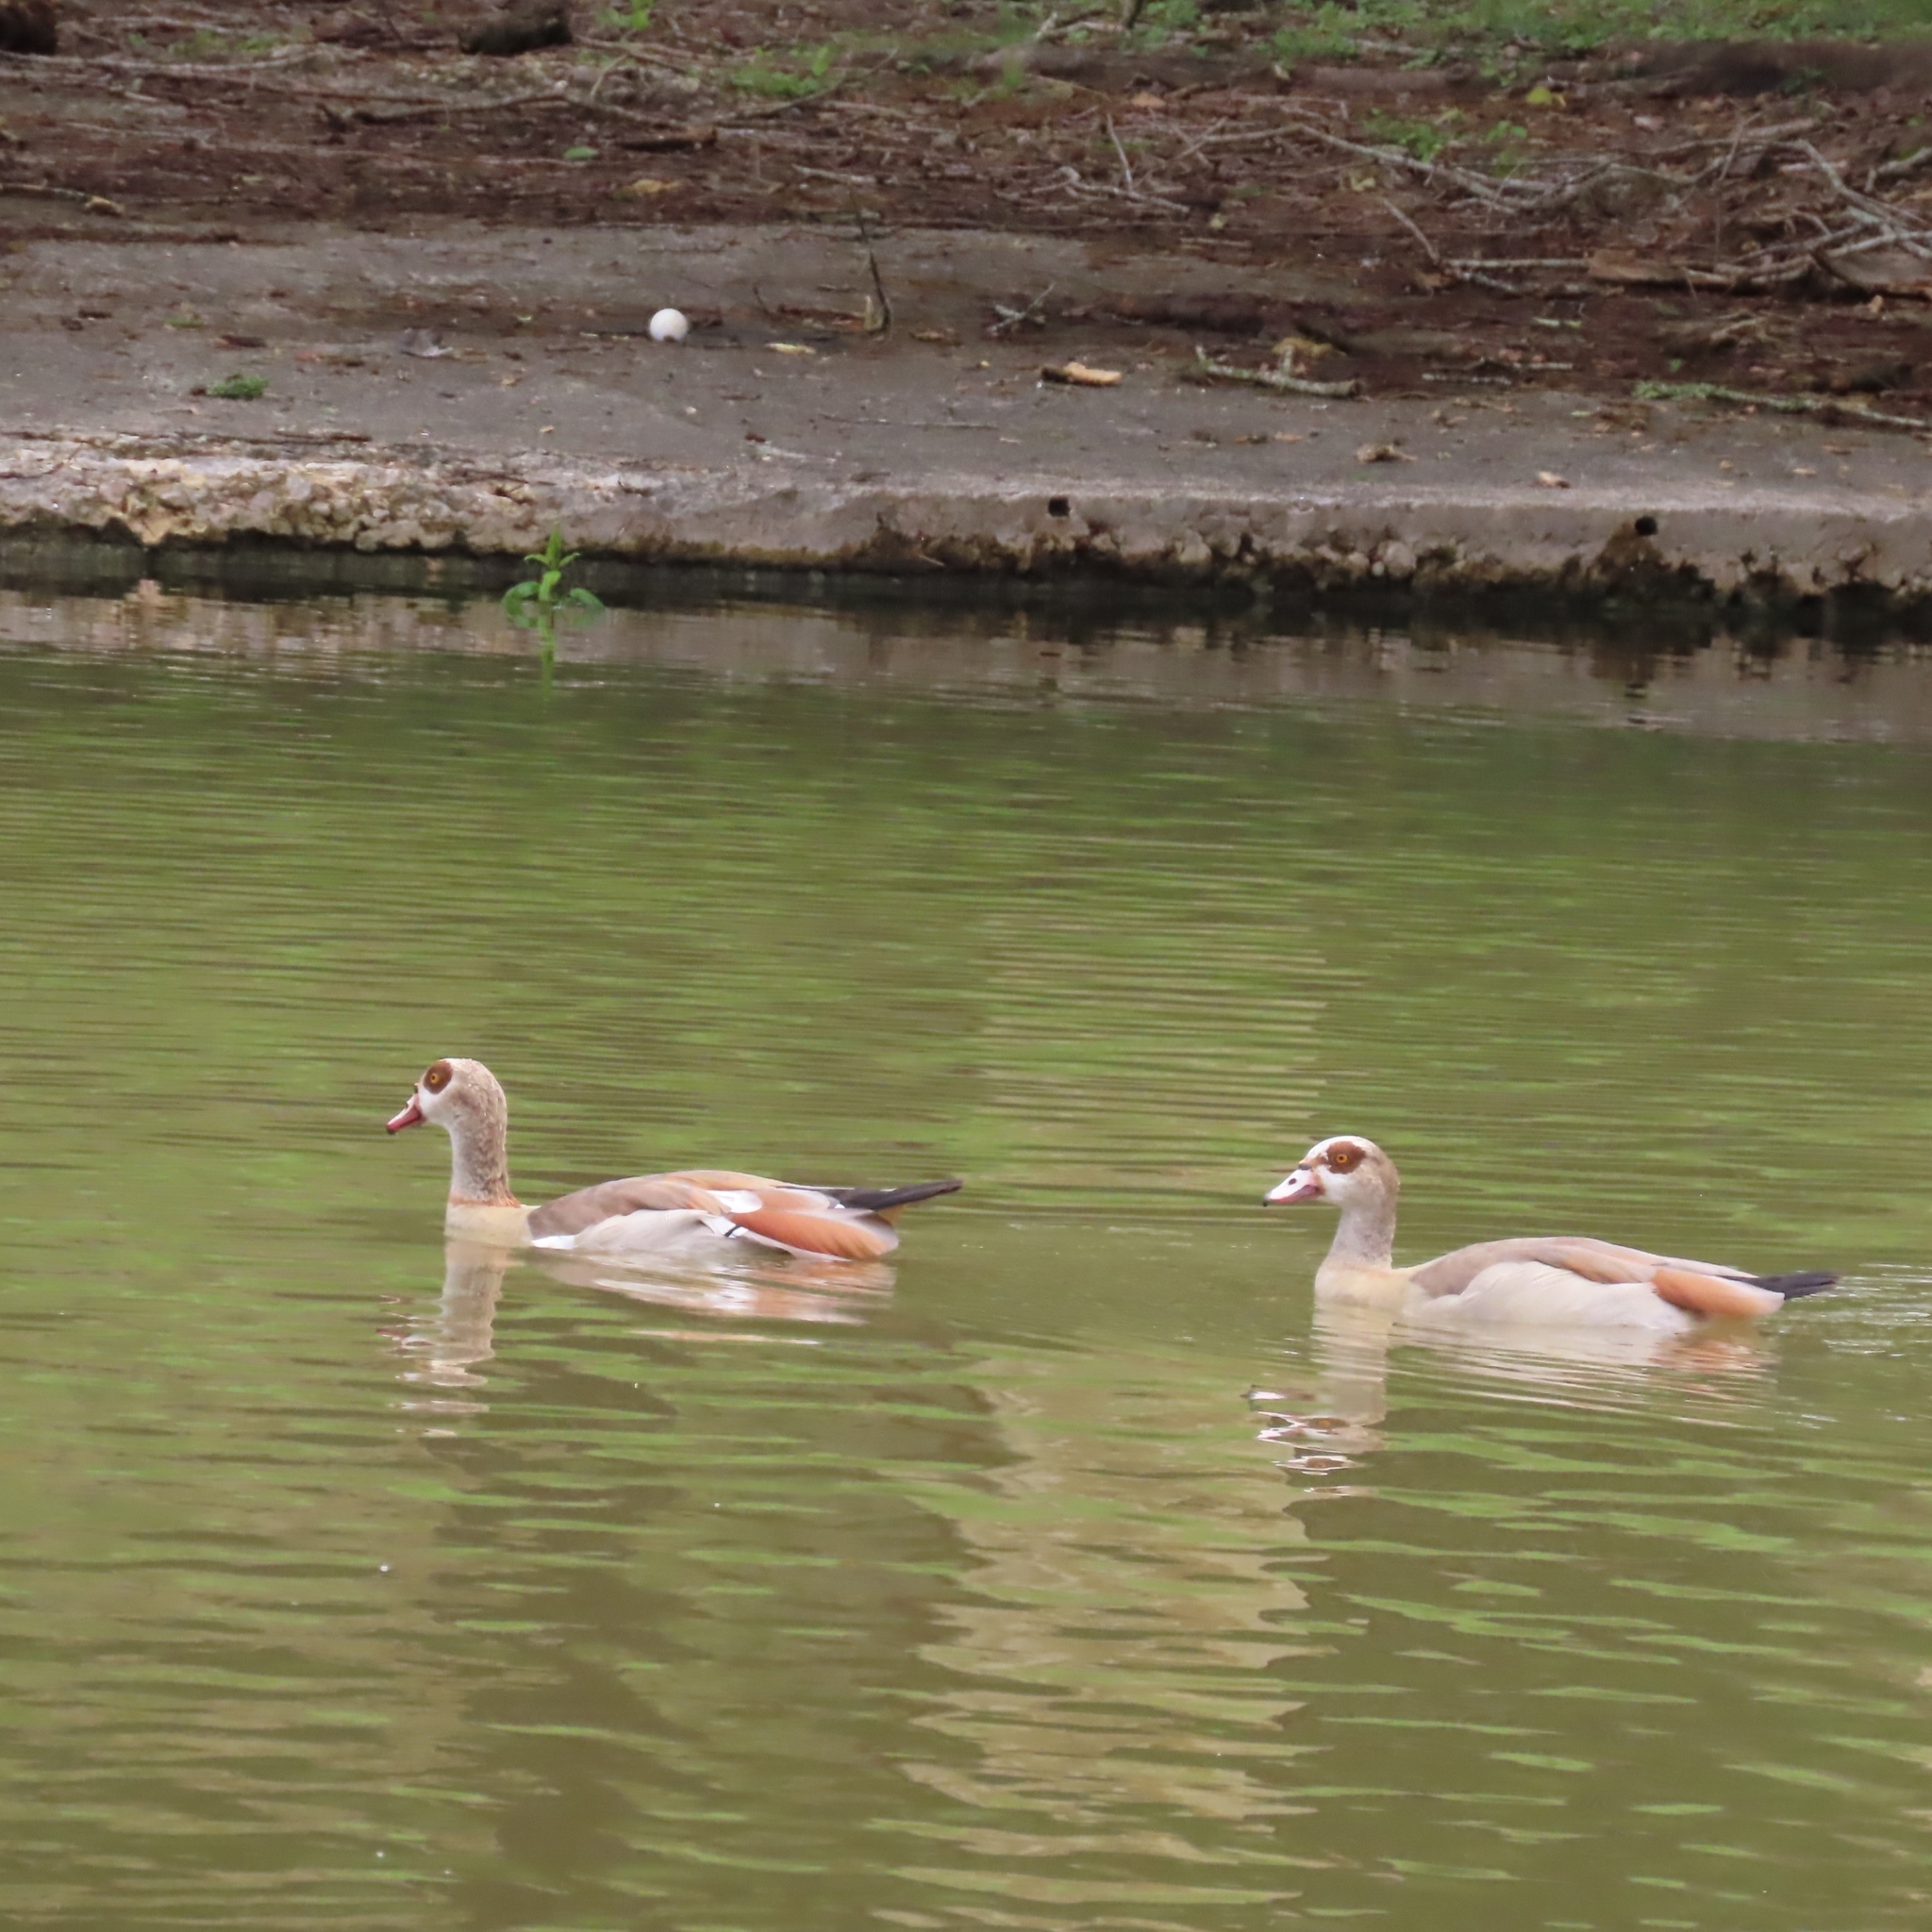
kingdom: Animalia
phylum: Chordata
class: Aves
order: Anseriformes
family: Anatidae
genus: Alopochen
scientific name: Alopochen aegyptiaca
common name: Egyptian goose
